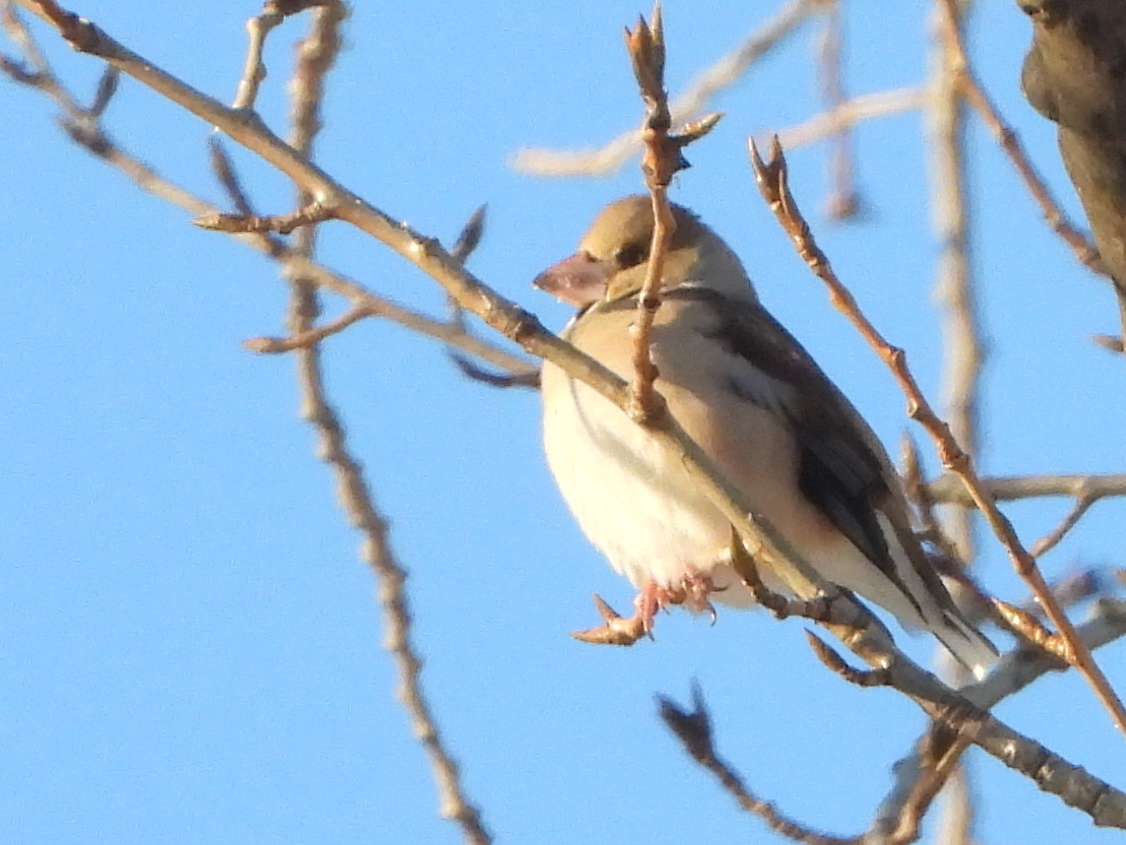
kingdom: Animalia
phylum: Chordata
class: Aves
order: Passeriformes
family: Fringillidae
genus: Coccothraustes
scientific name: Coccothraustes coccothraustes
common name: Hawfinch
